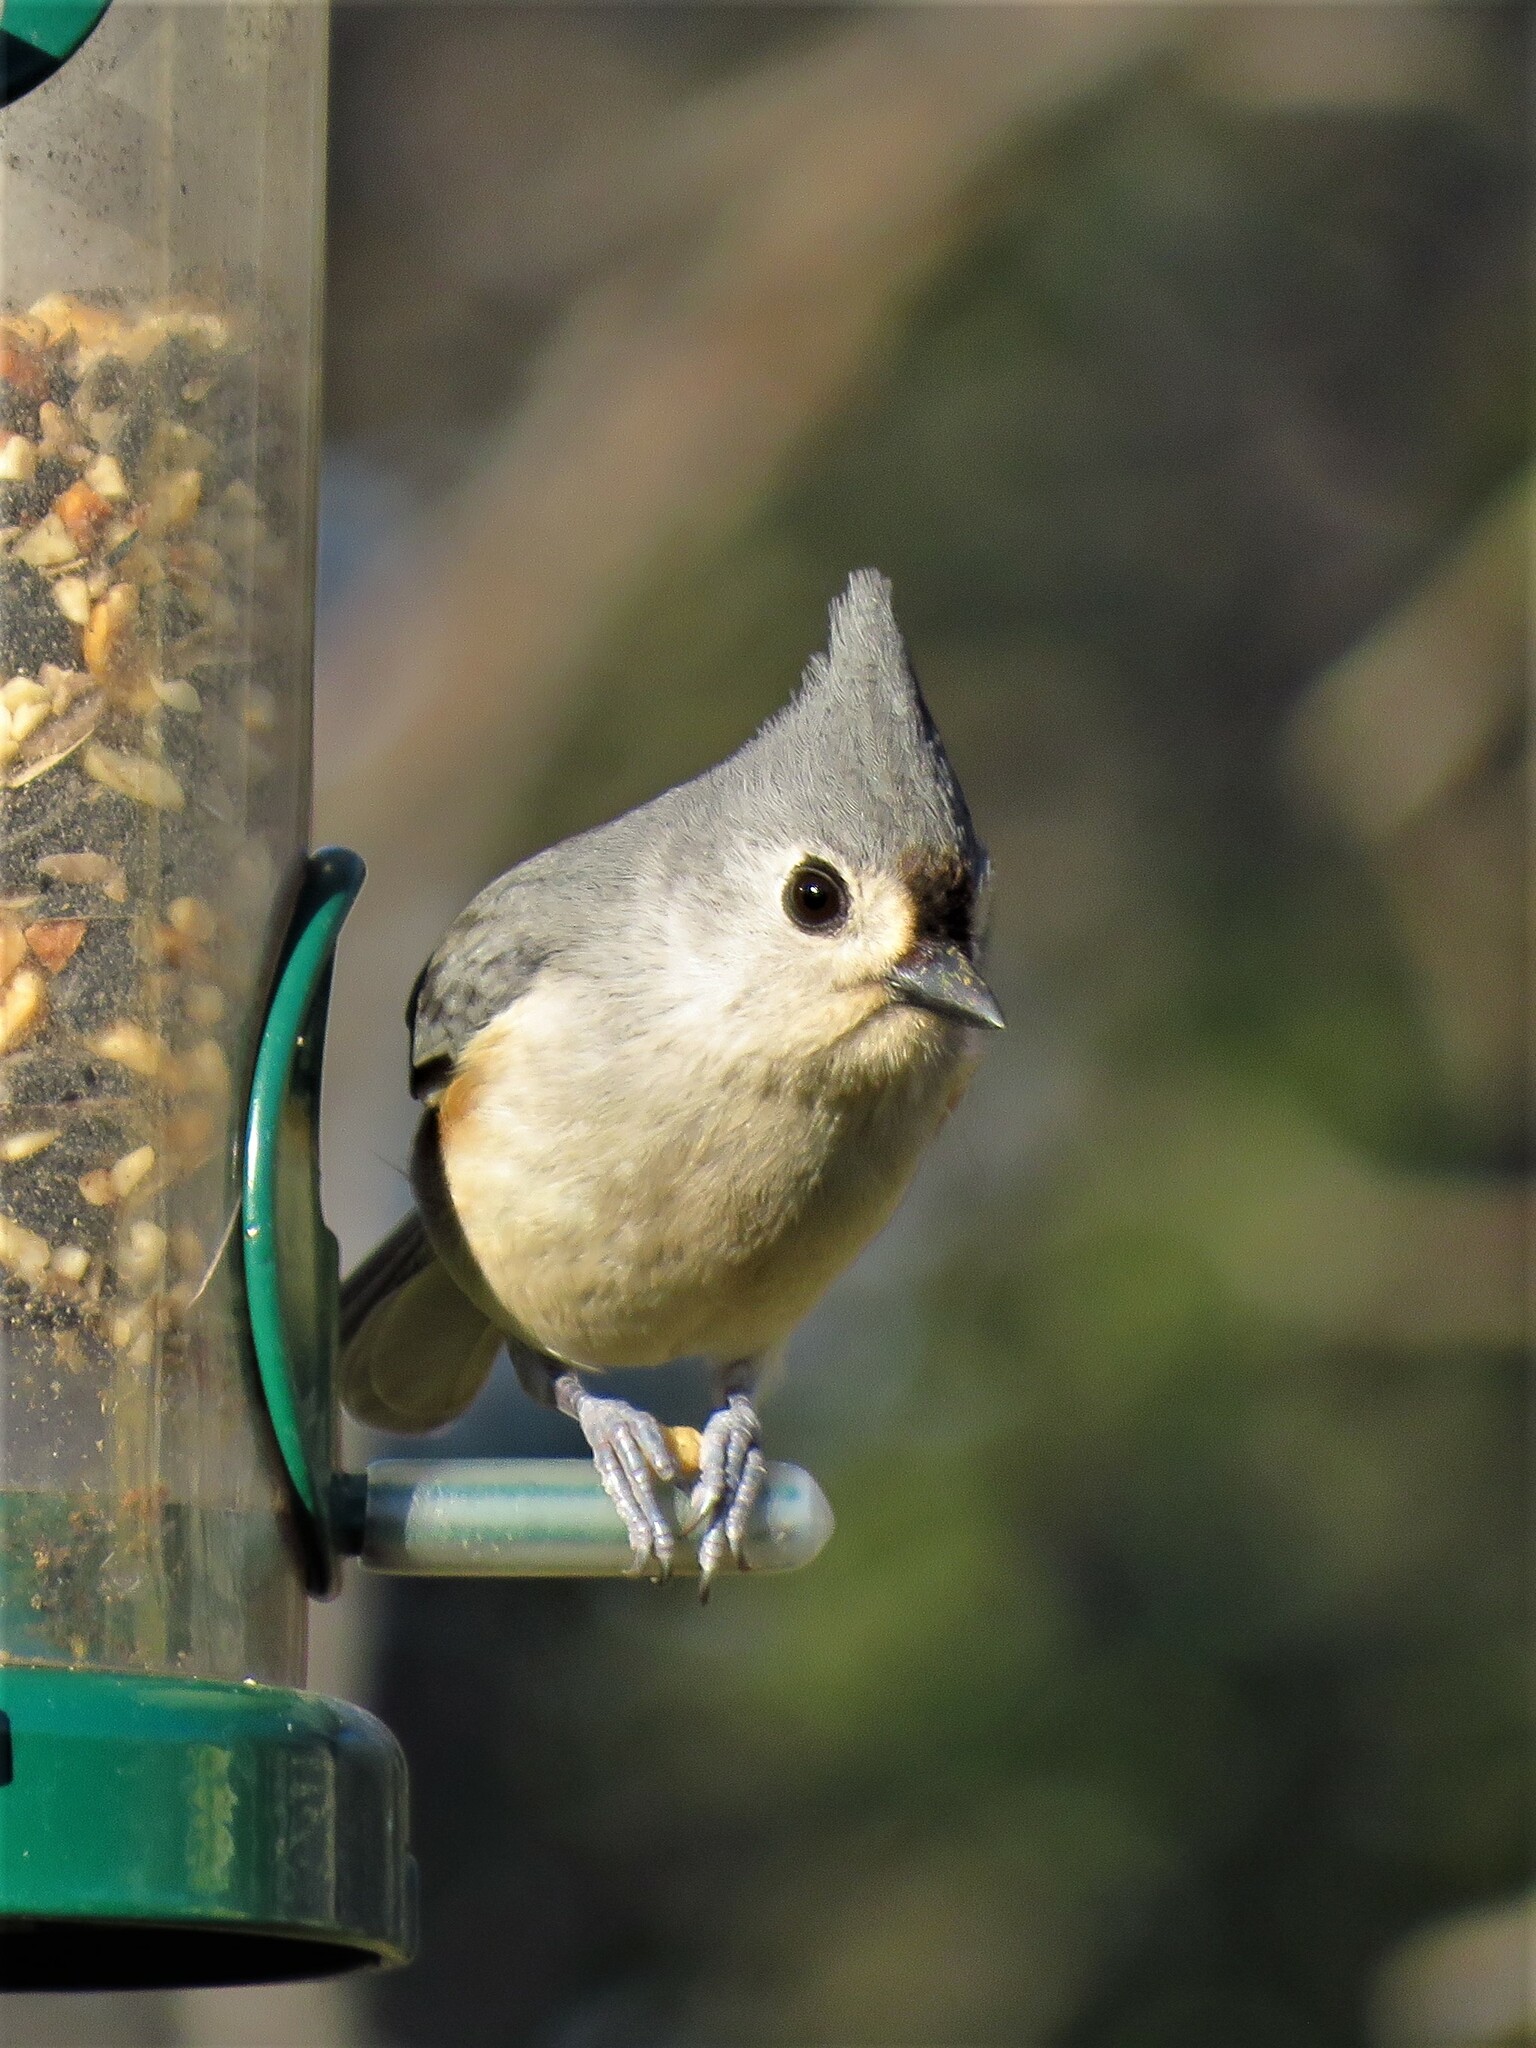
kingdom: Animalia
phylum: Chordata
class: Aves
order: Passeriformes
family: Paridae
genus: Baeolophus
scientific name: Baeolophus bicolor
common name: Tufted titmouse
